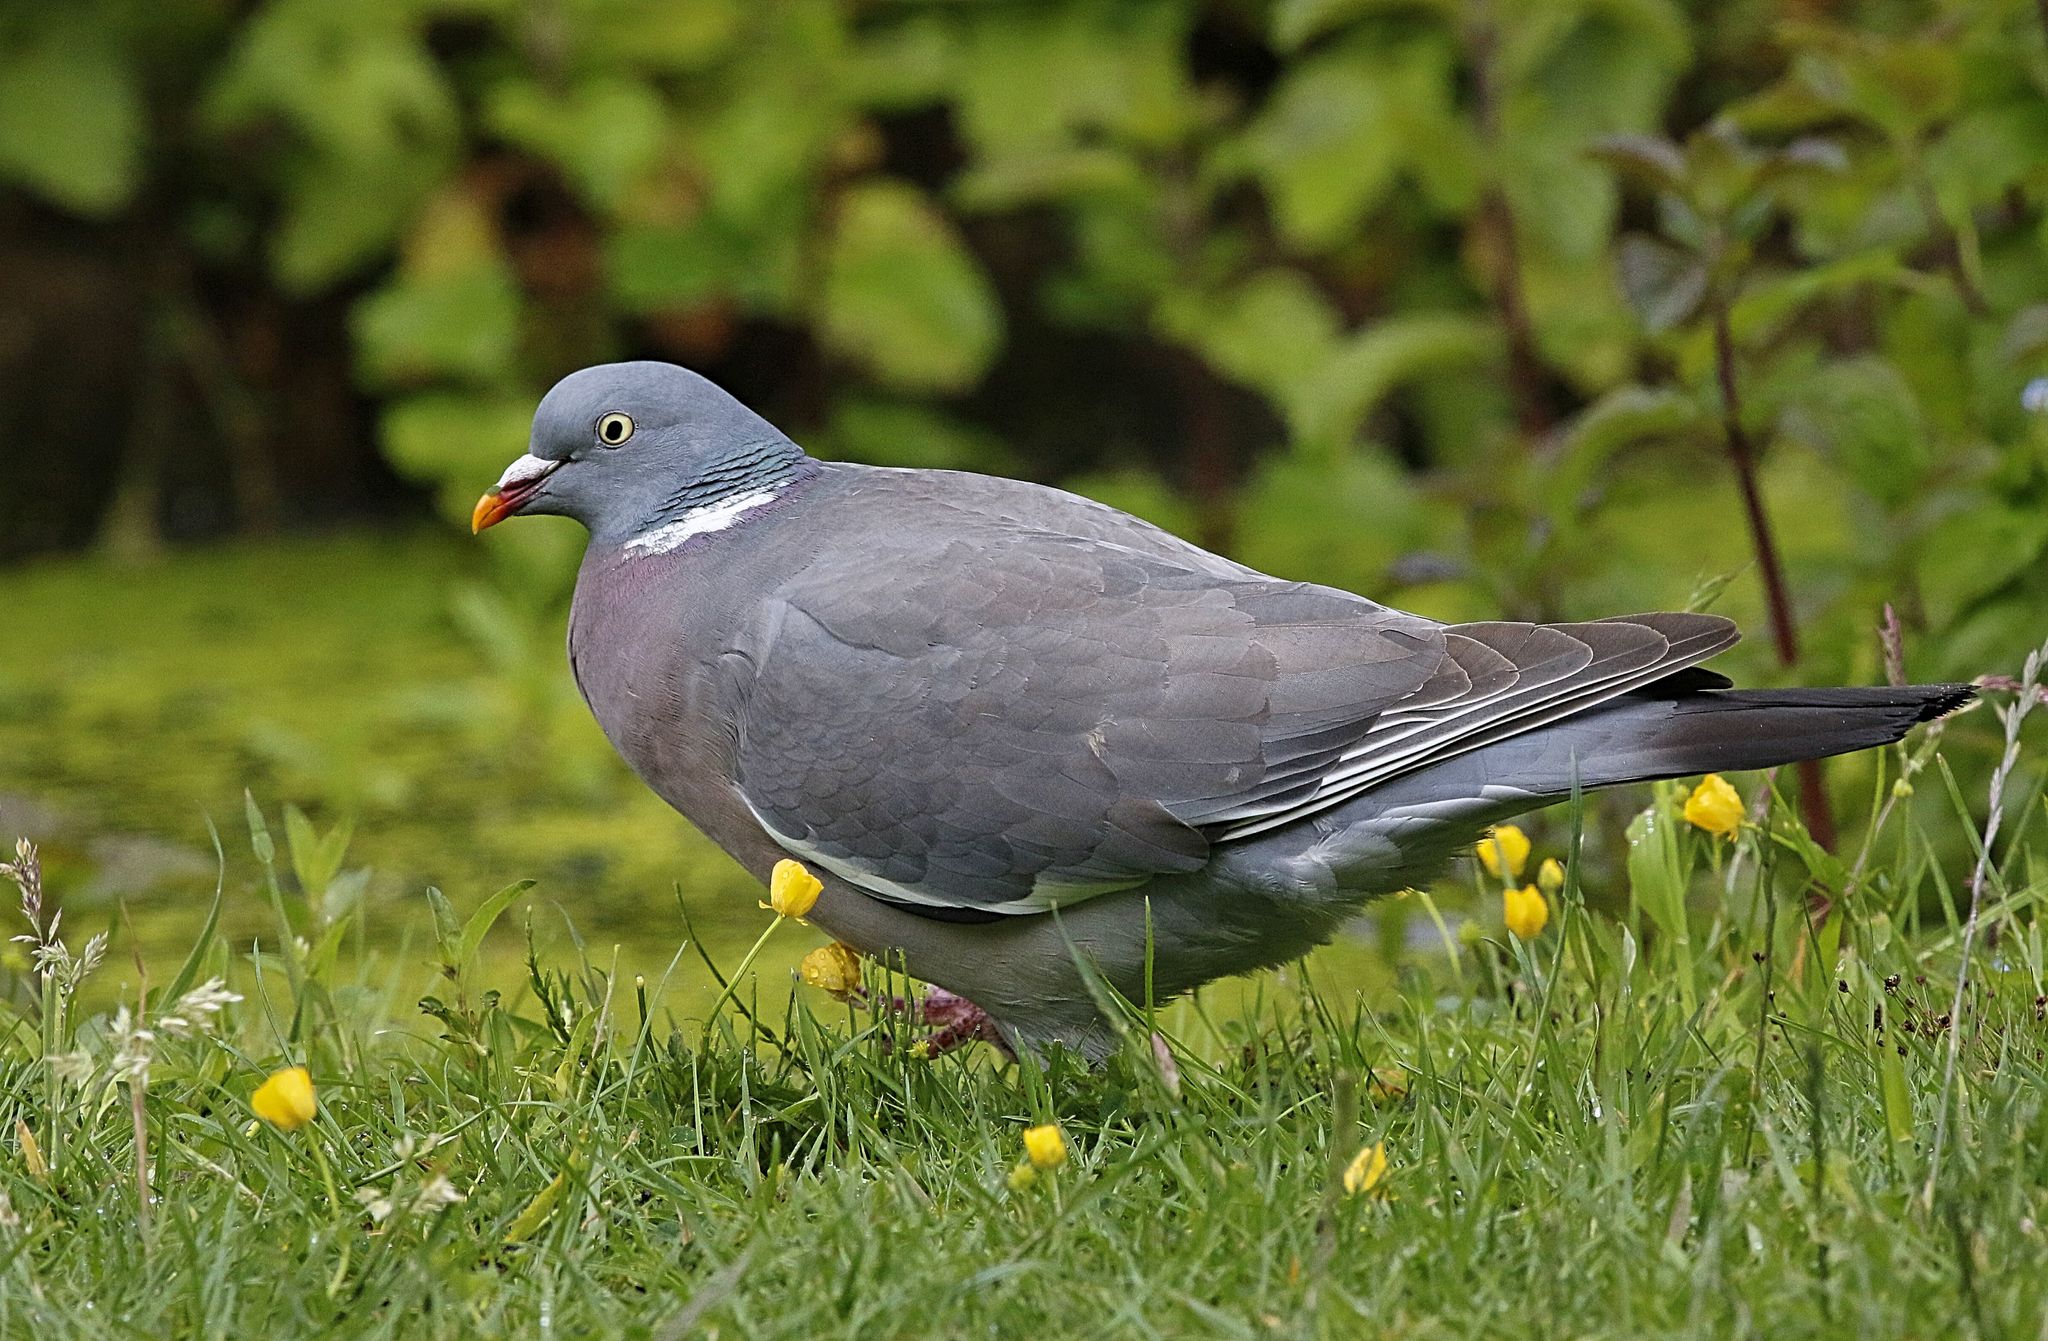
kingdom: Animalia
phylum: Chordata
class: Aves
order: Columbiformes
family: Columbidae
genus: Columba
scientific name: Columba palumbus
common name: Common wood pigeon
